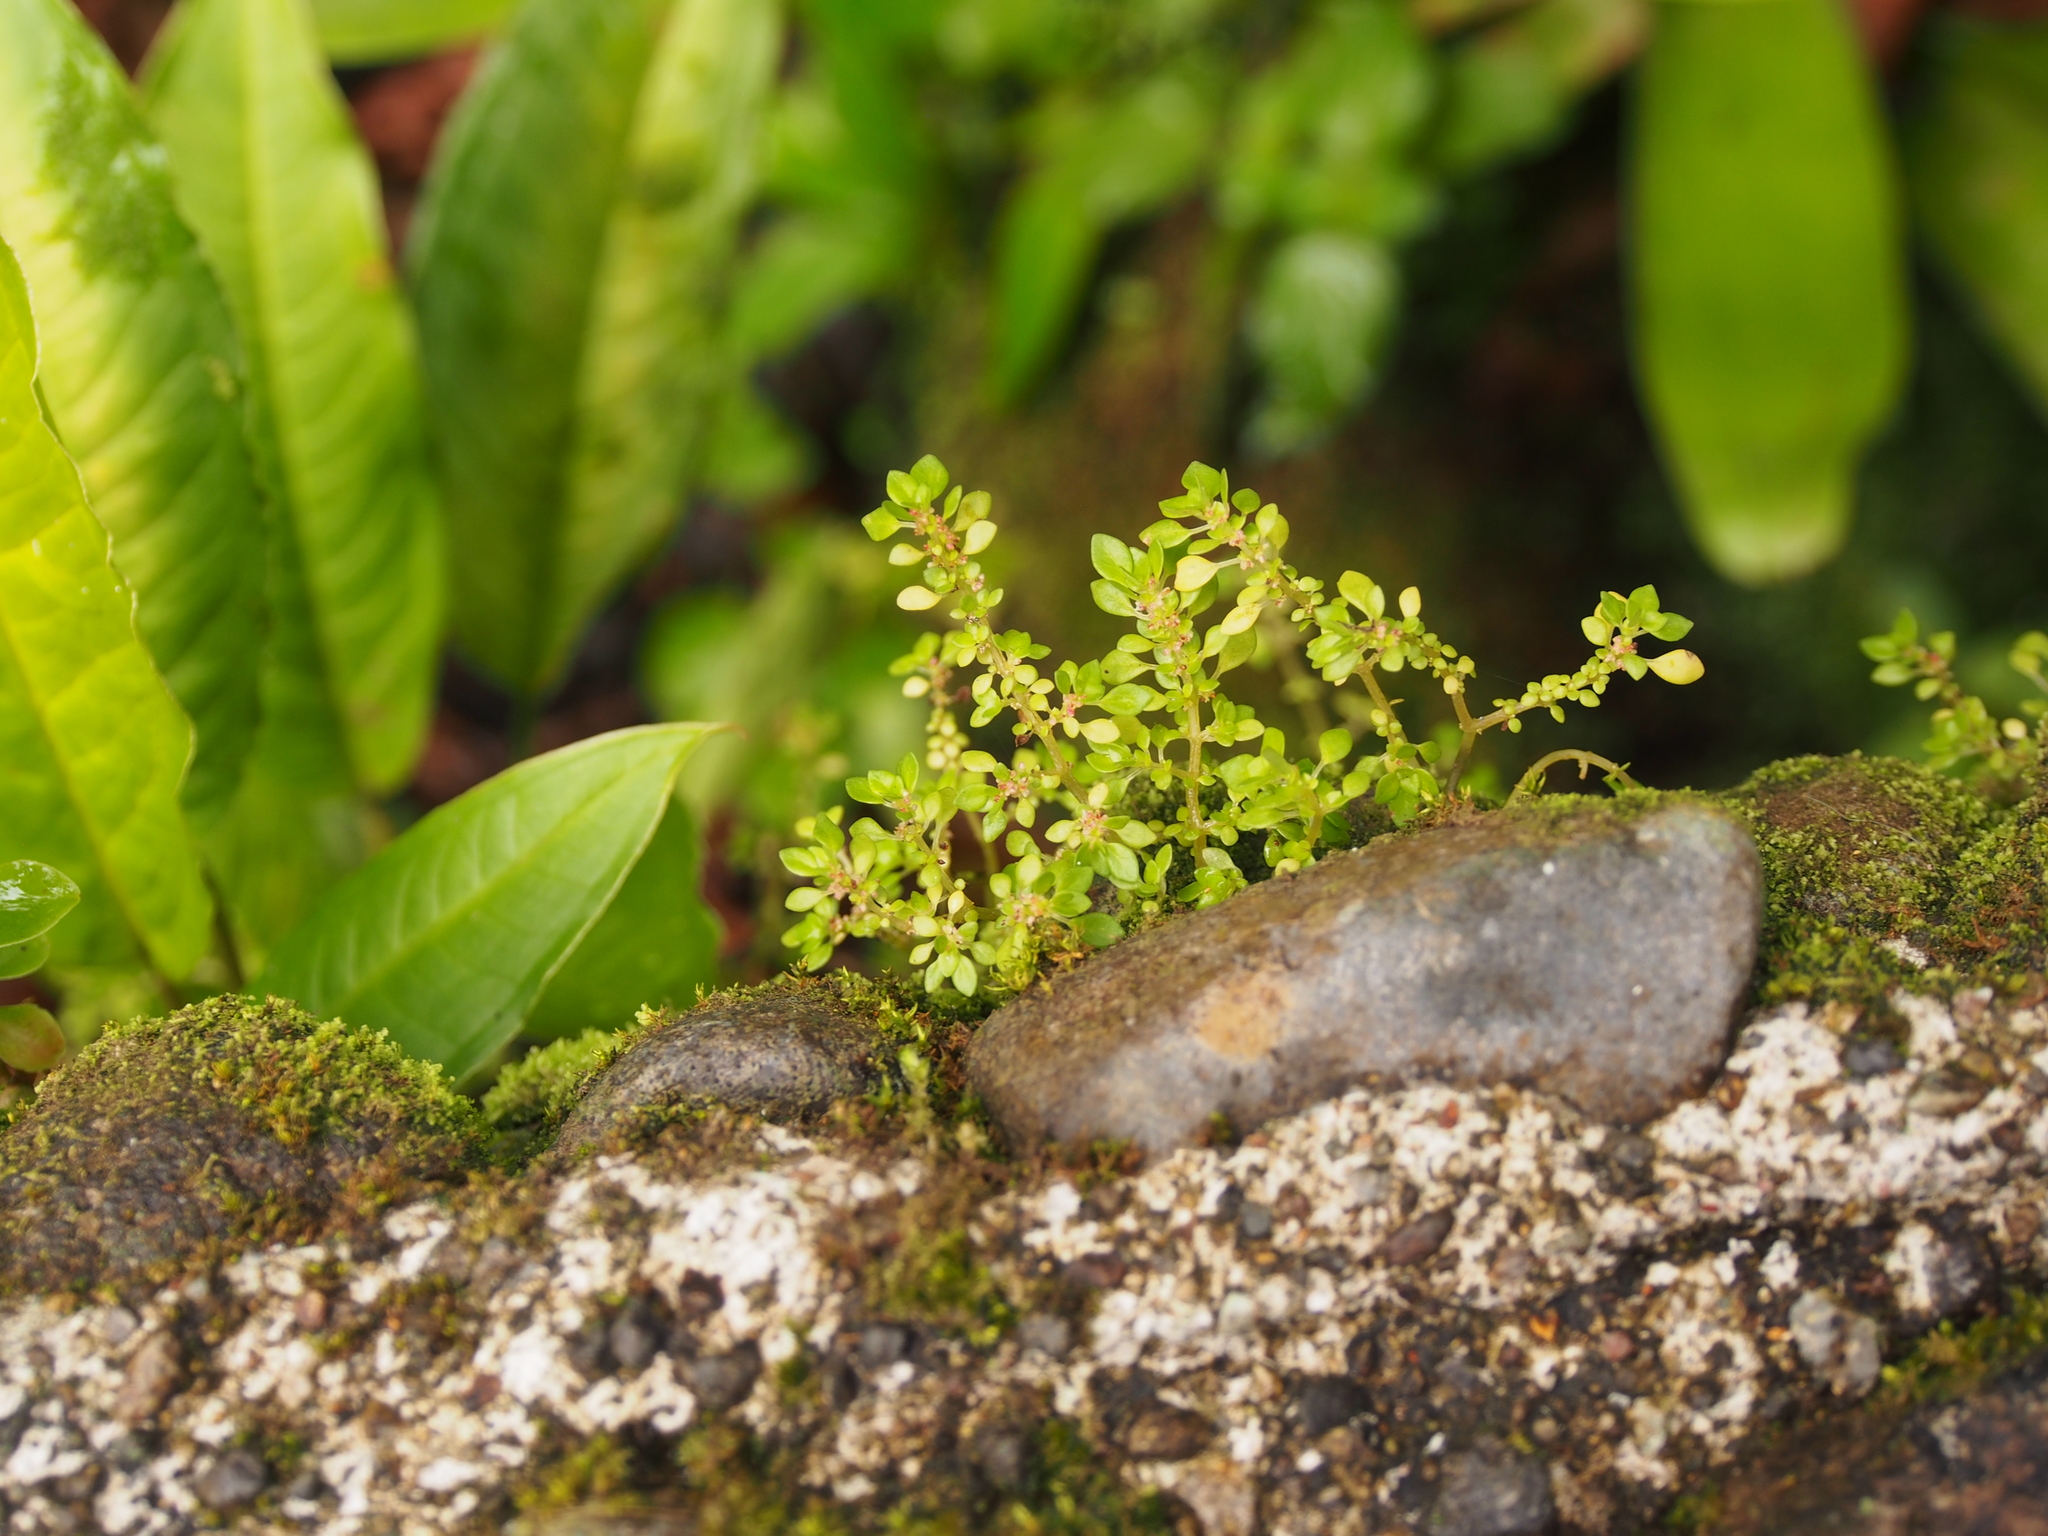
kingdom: Plantae
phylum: Tracheophyta
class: Magnoliopsida
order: Rosales
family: Urticaceae
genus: Pilea
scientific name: Pilea microphylla
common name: Artillery-plant
